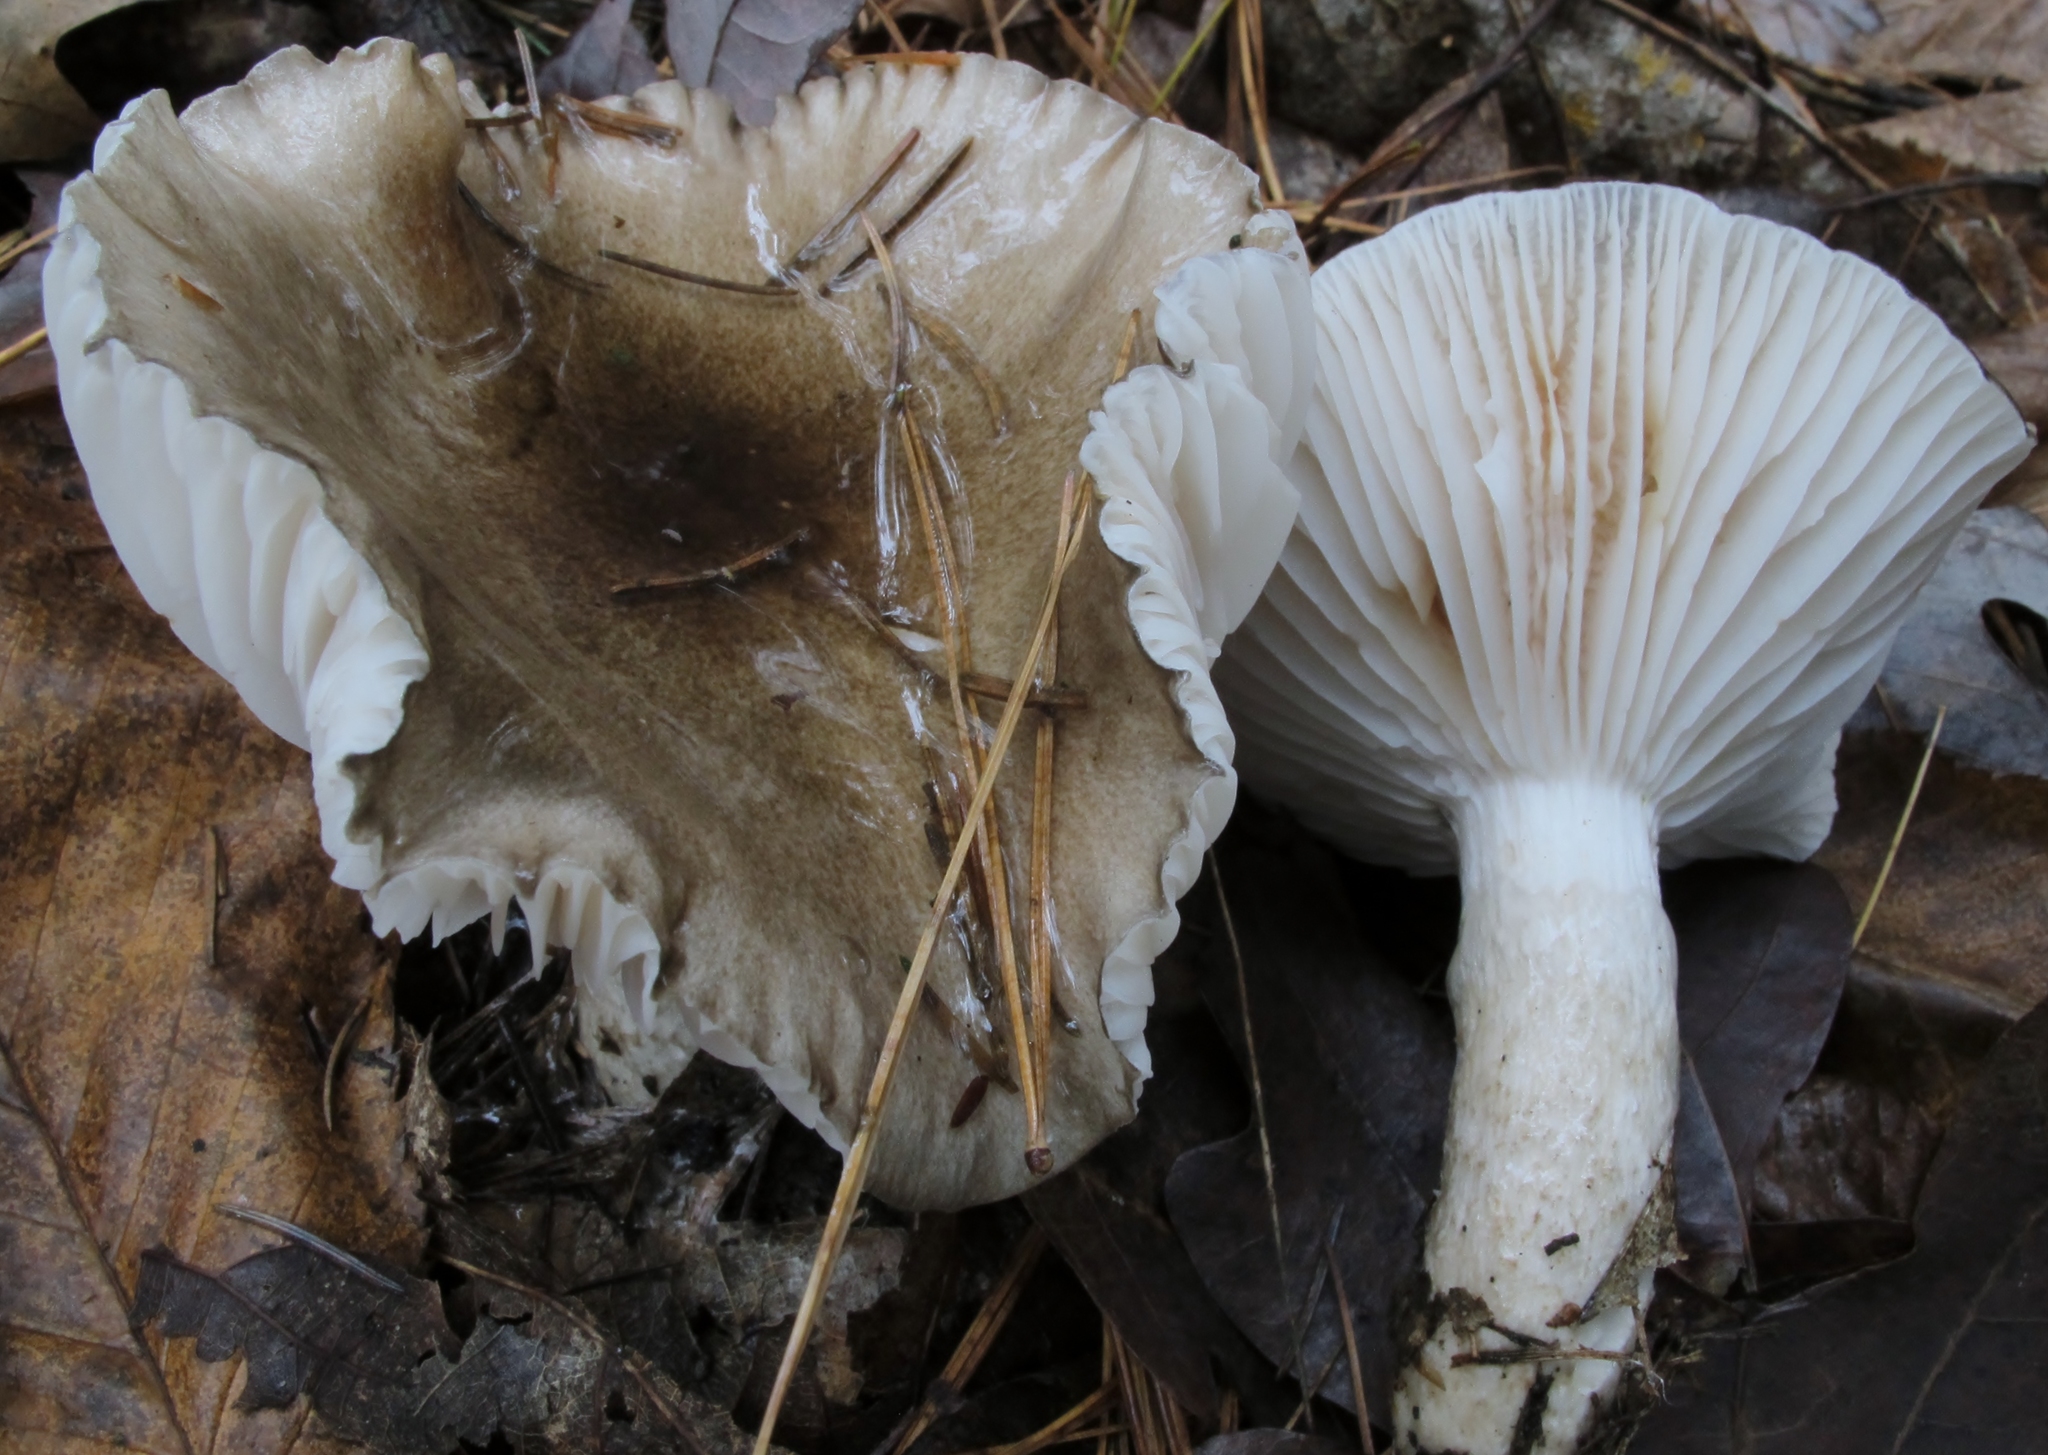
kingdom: Fungi
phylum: Basidiomycota
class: Agaricomycetes
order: Agaricales
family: Hygrophoraceae
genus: Hygrophorus
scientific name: Hygrophorus fuligineus
